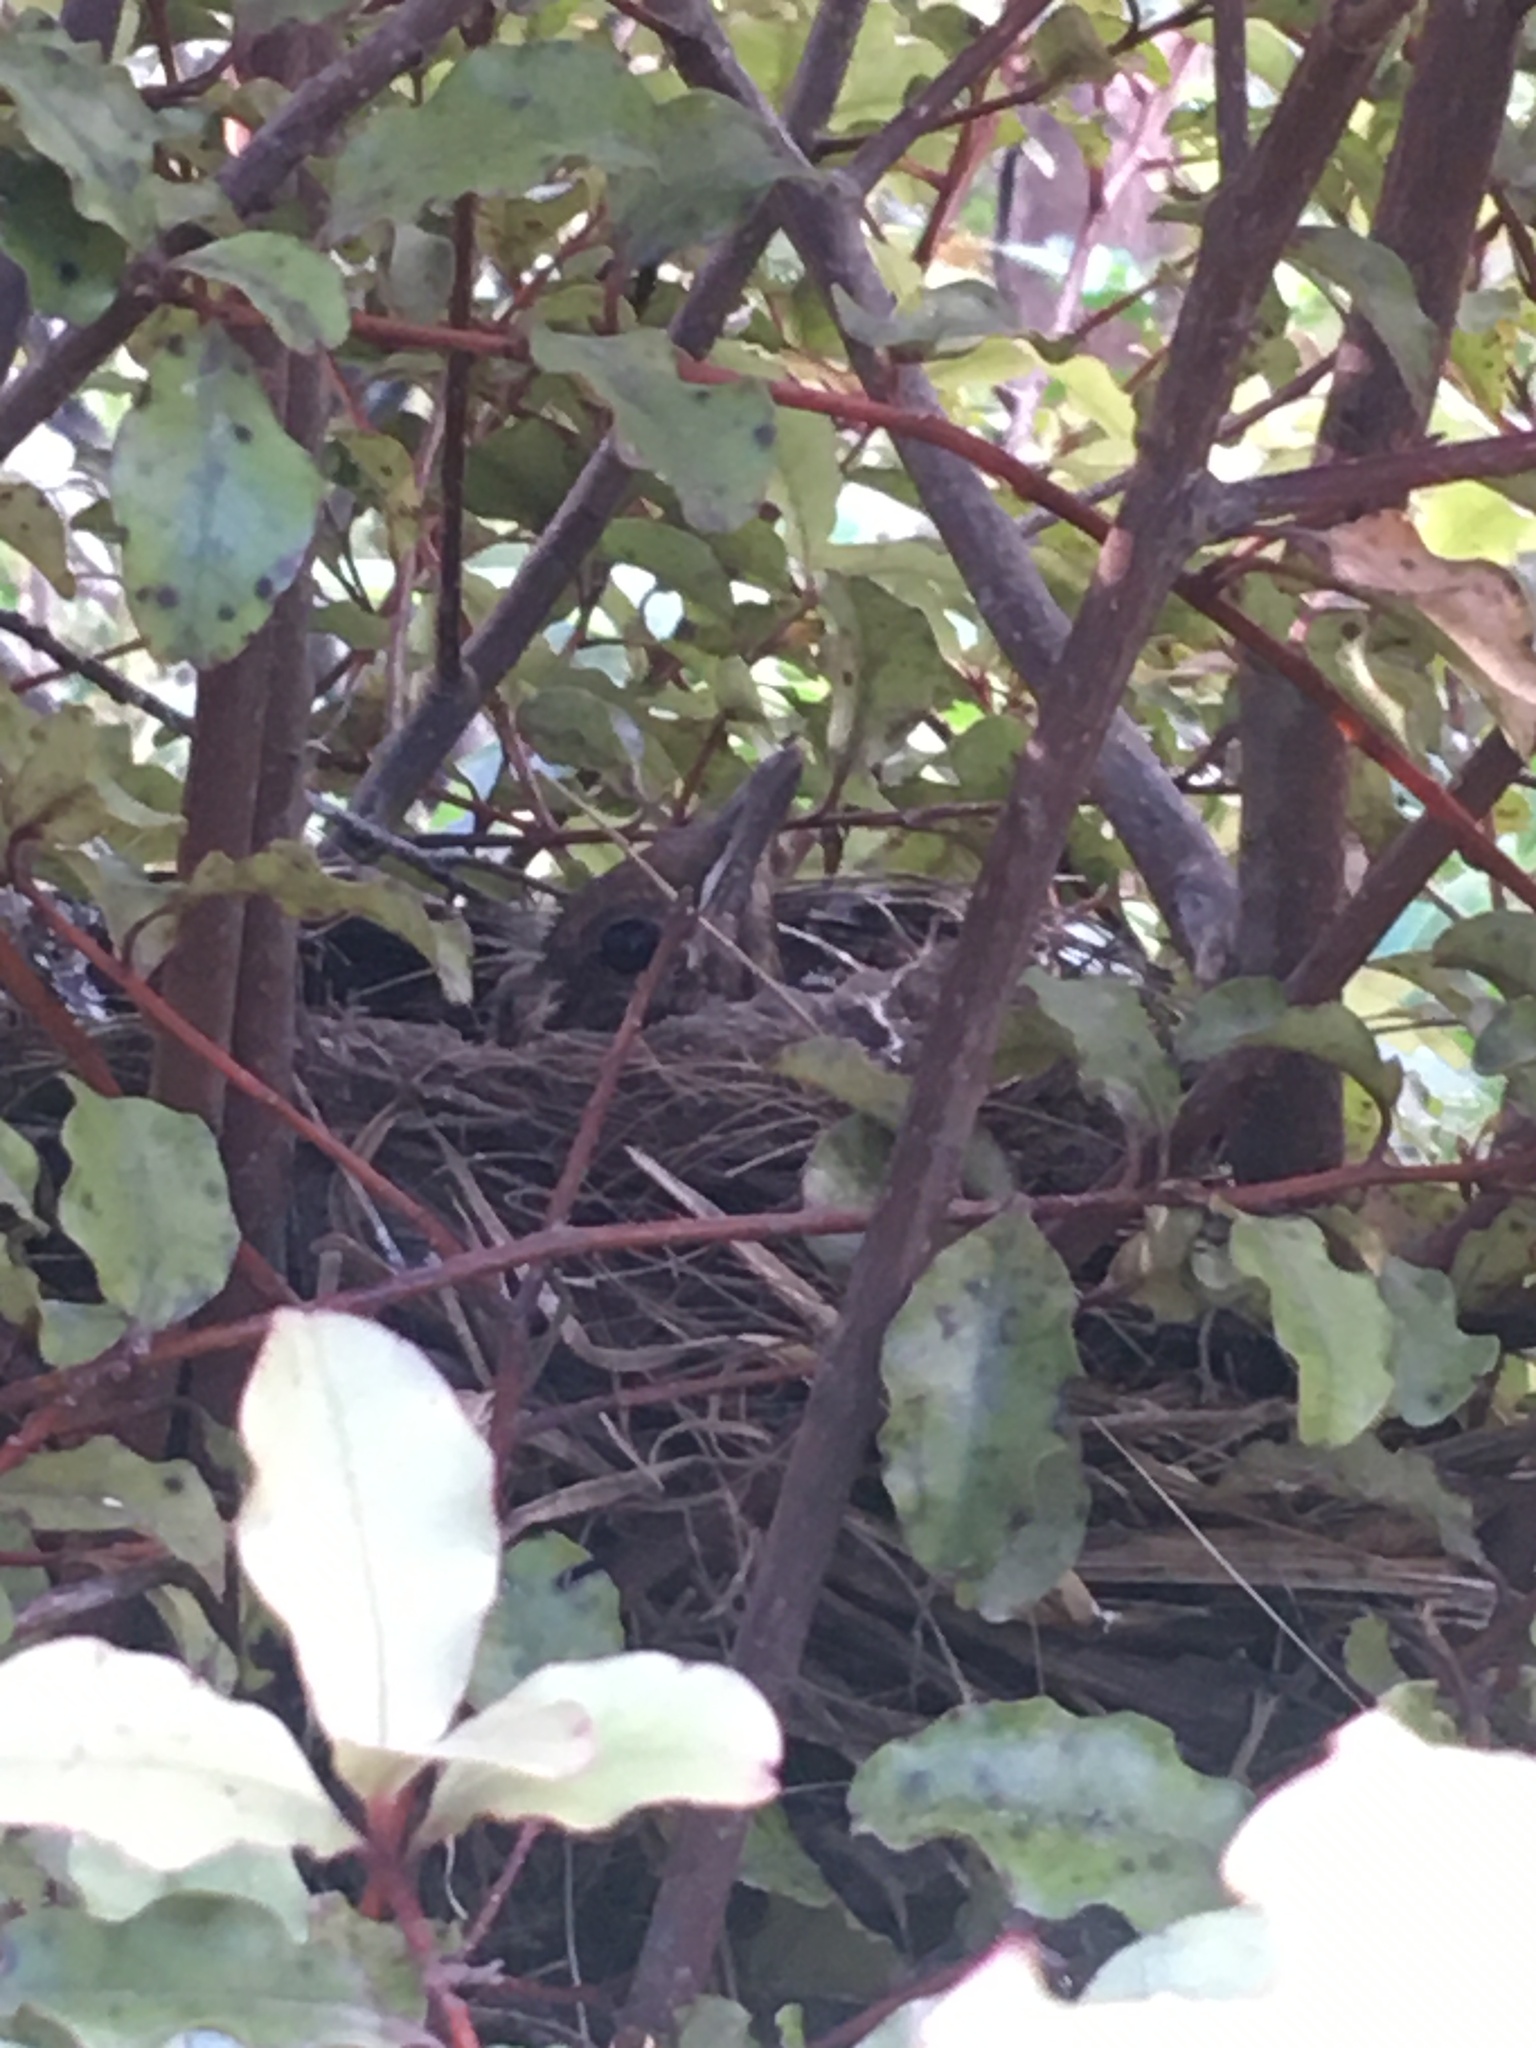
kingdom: Animalia
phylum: Chordata
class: Aves
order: Passeriformes
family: Turdidae
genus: Turdus
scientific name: Turdus merula
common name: Common blackbird
